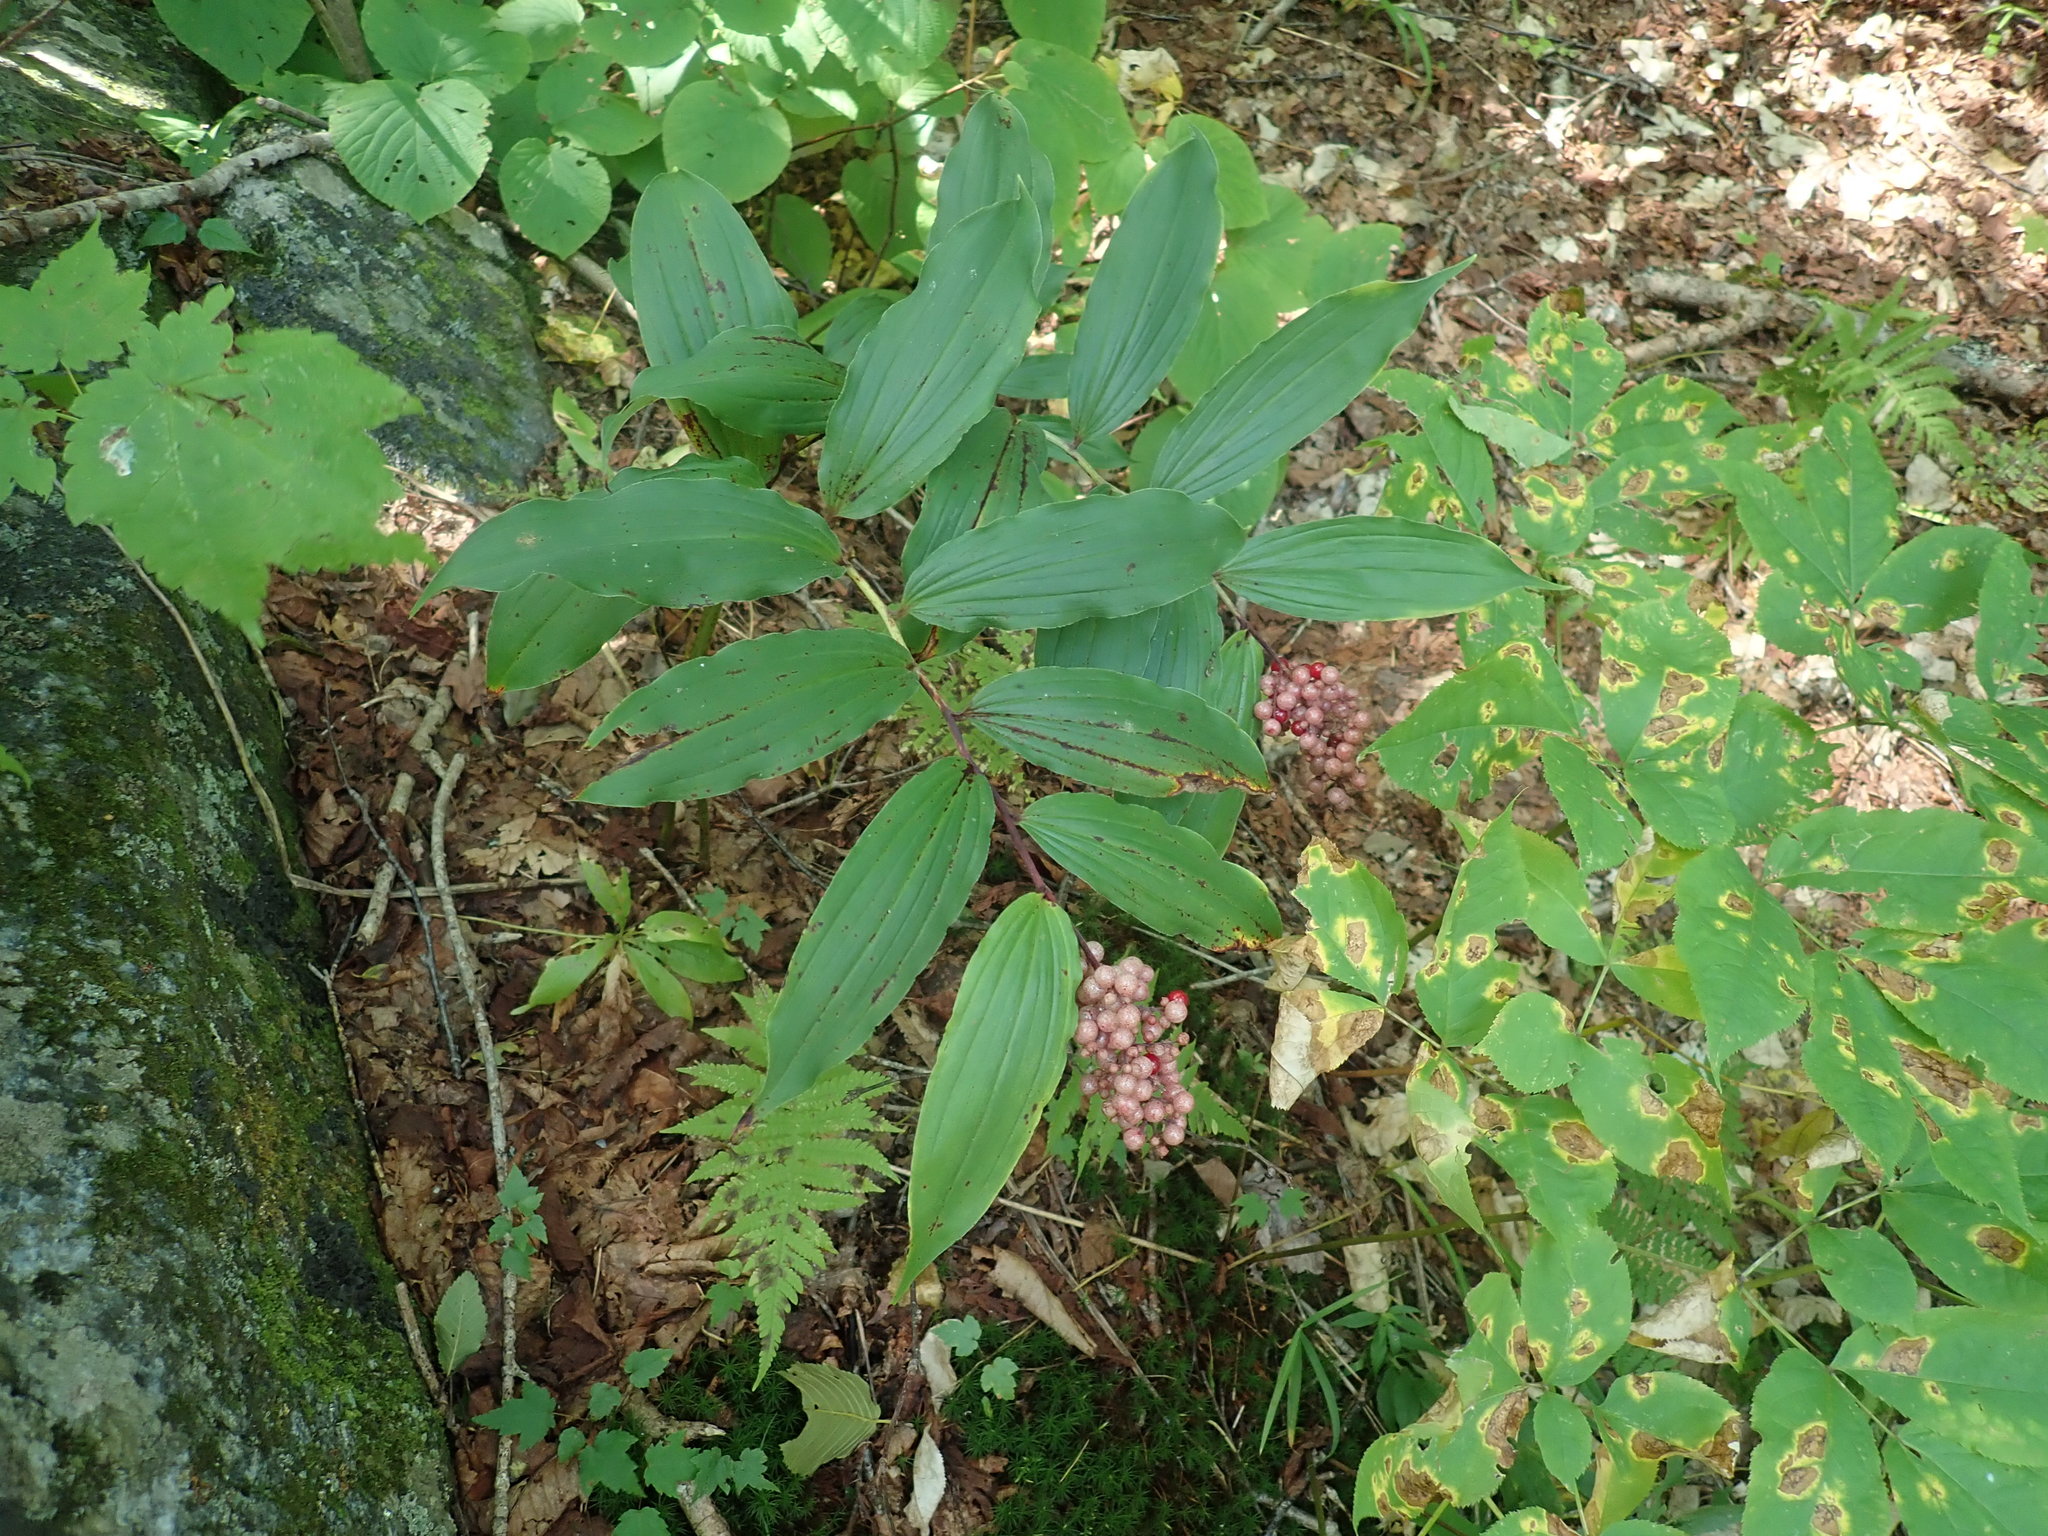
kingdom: Plantae
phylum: Tracheophyta
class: Liliopsida
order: Asparagales
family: Asparagaceae
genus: Maianthemum
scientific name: Maianthemum racemosum
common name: False spikenard
